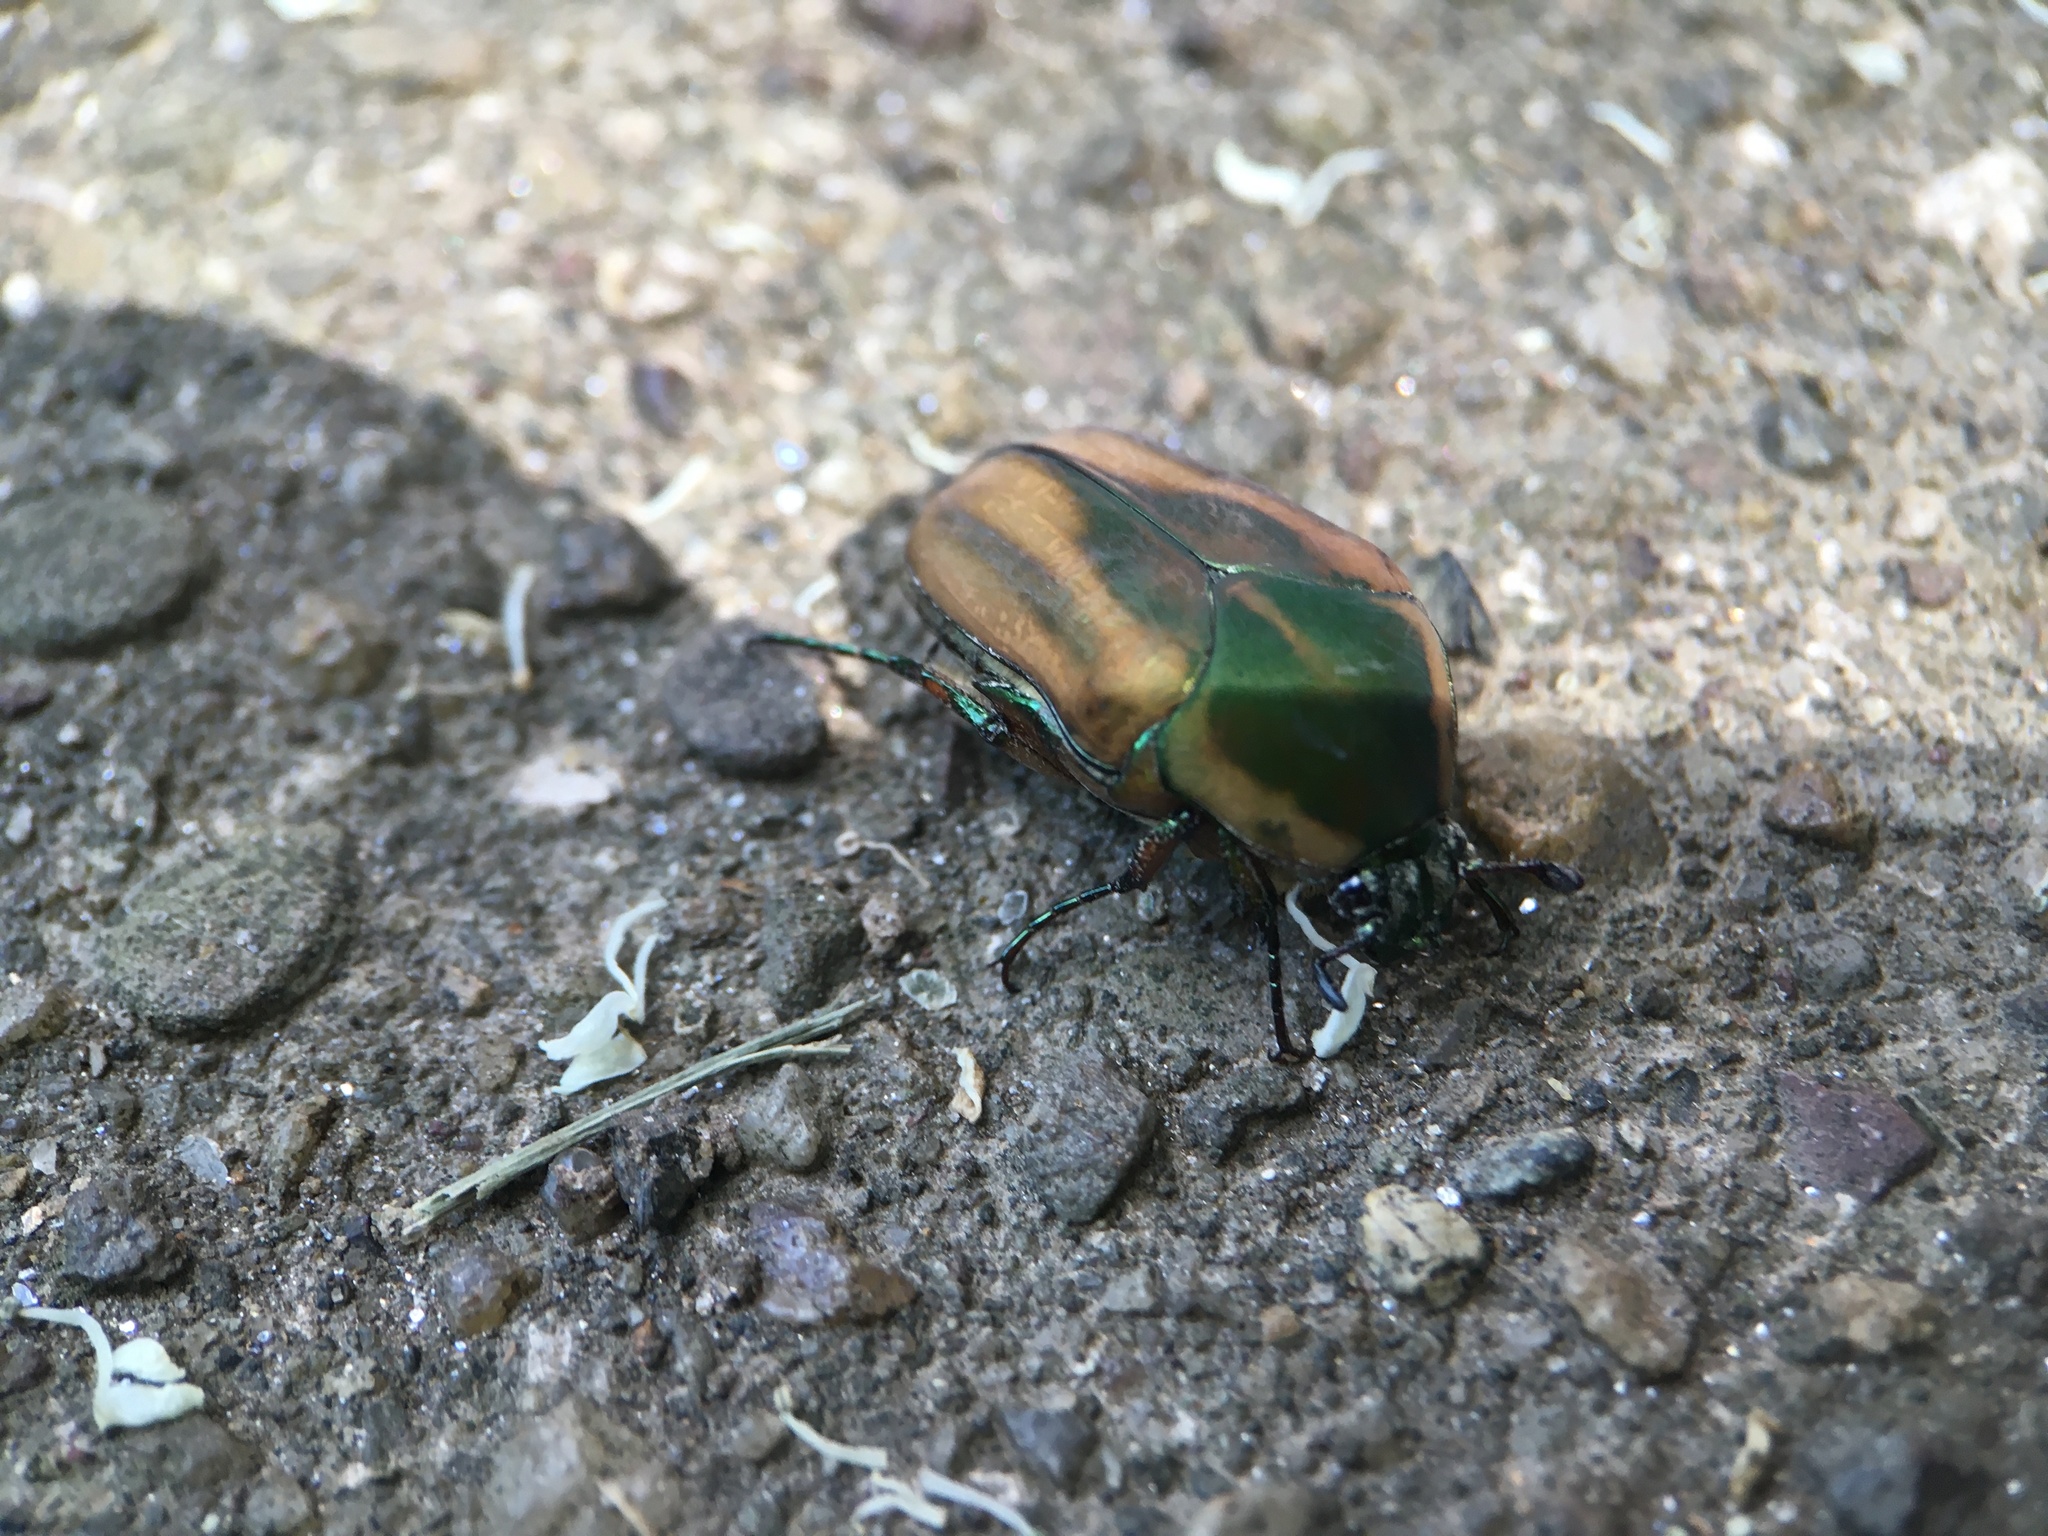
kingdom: Animalia
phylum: Arthropoda
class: Insecta
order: Coleoptera
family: Scarabaeidae
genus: Cotinis
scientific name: Cotinis nitida
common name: Common green june beetle
